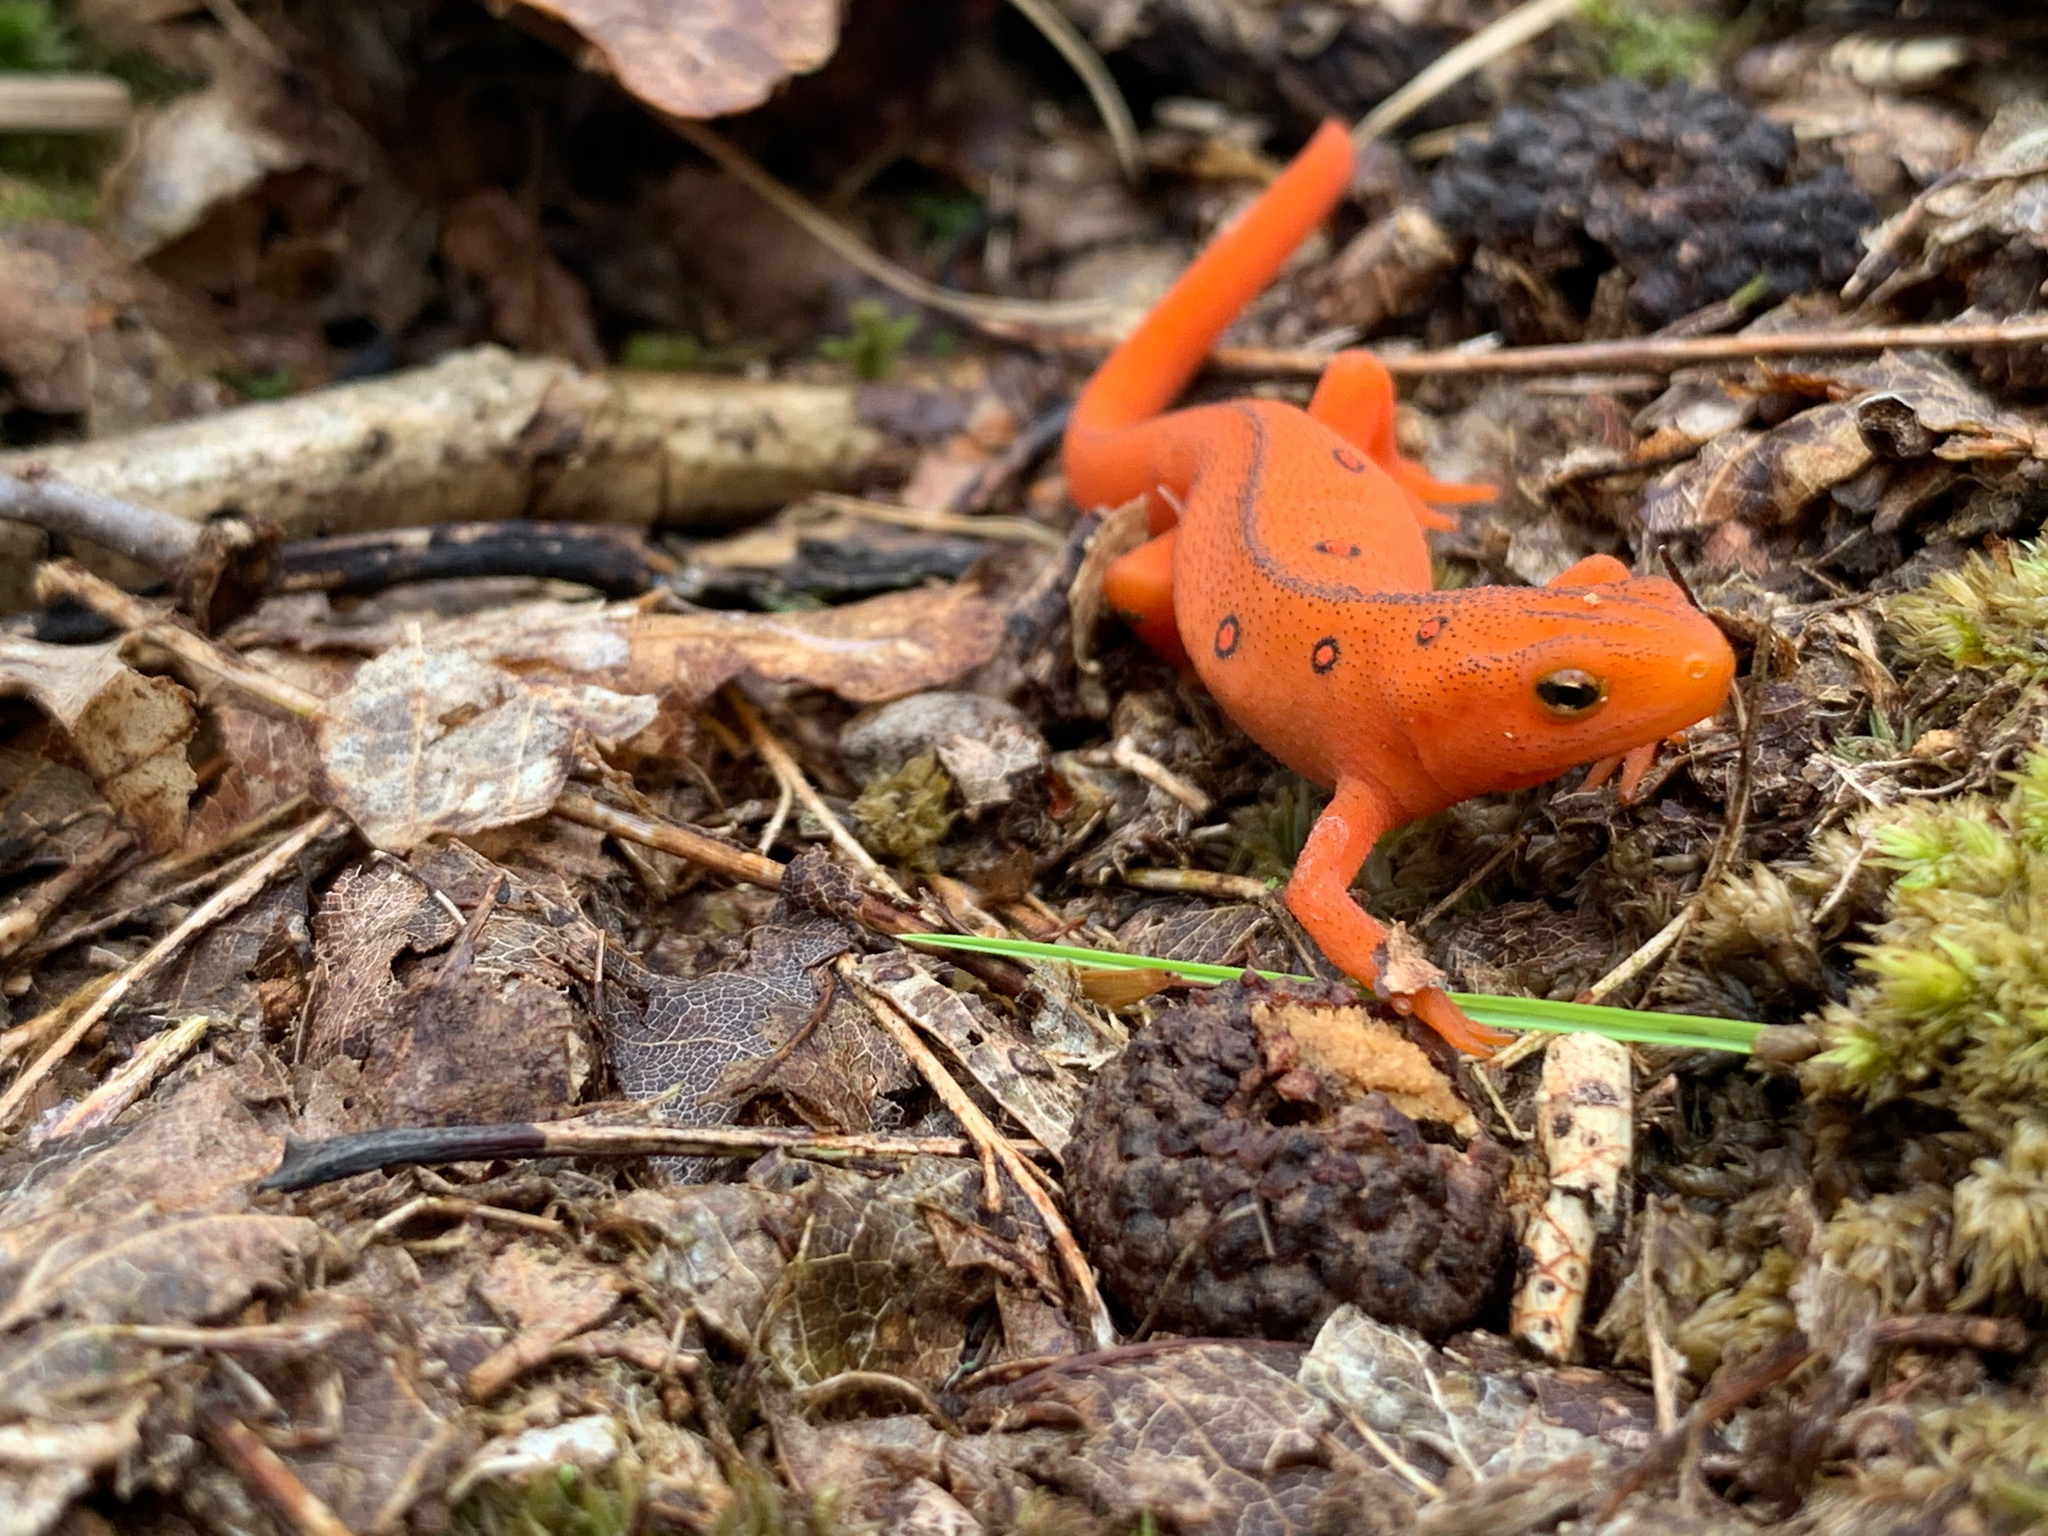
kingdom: Animalia
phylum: Chordata
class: Amphibia
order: Caudata
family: Salamandridae
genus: Notophthalmus
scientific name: Notophthalmus viridescens
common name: Eastern newt
